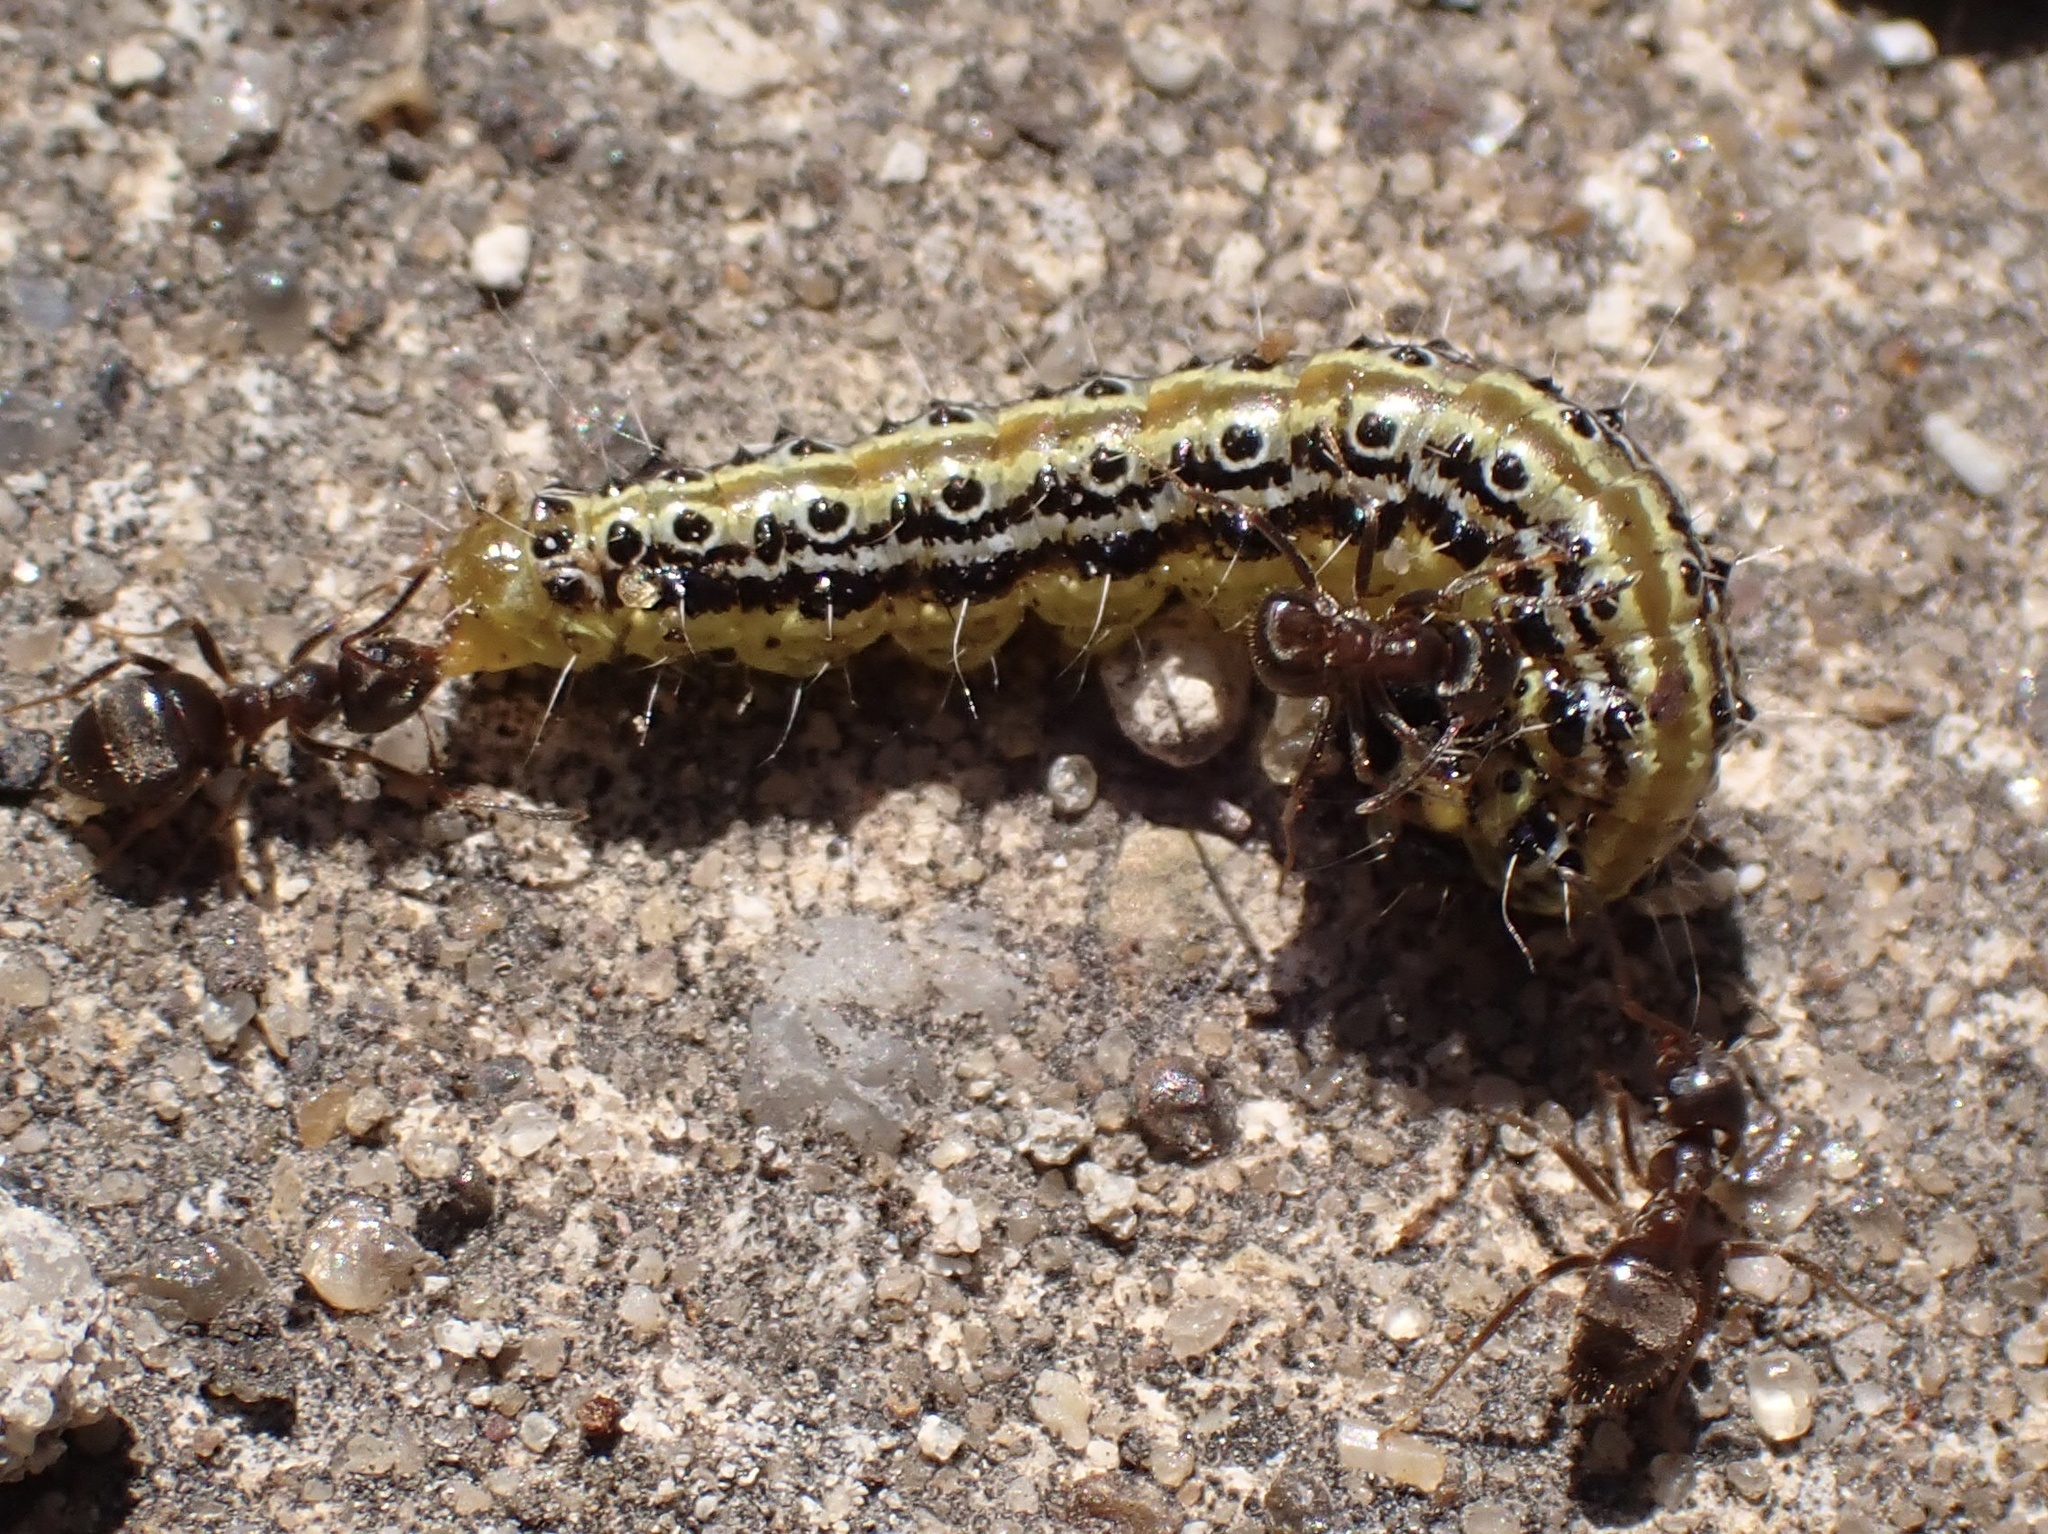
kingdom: Animalia
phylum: Arthropoda
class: Insecta
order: Lepidoptera
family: Crambidae
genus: Cydalima
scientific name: Cydalima perspectalis
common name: Box tree moth
